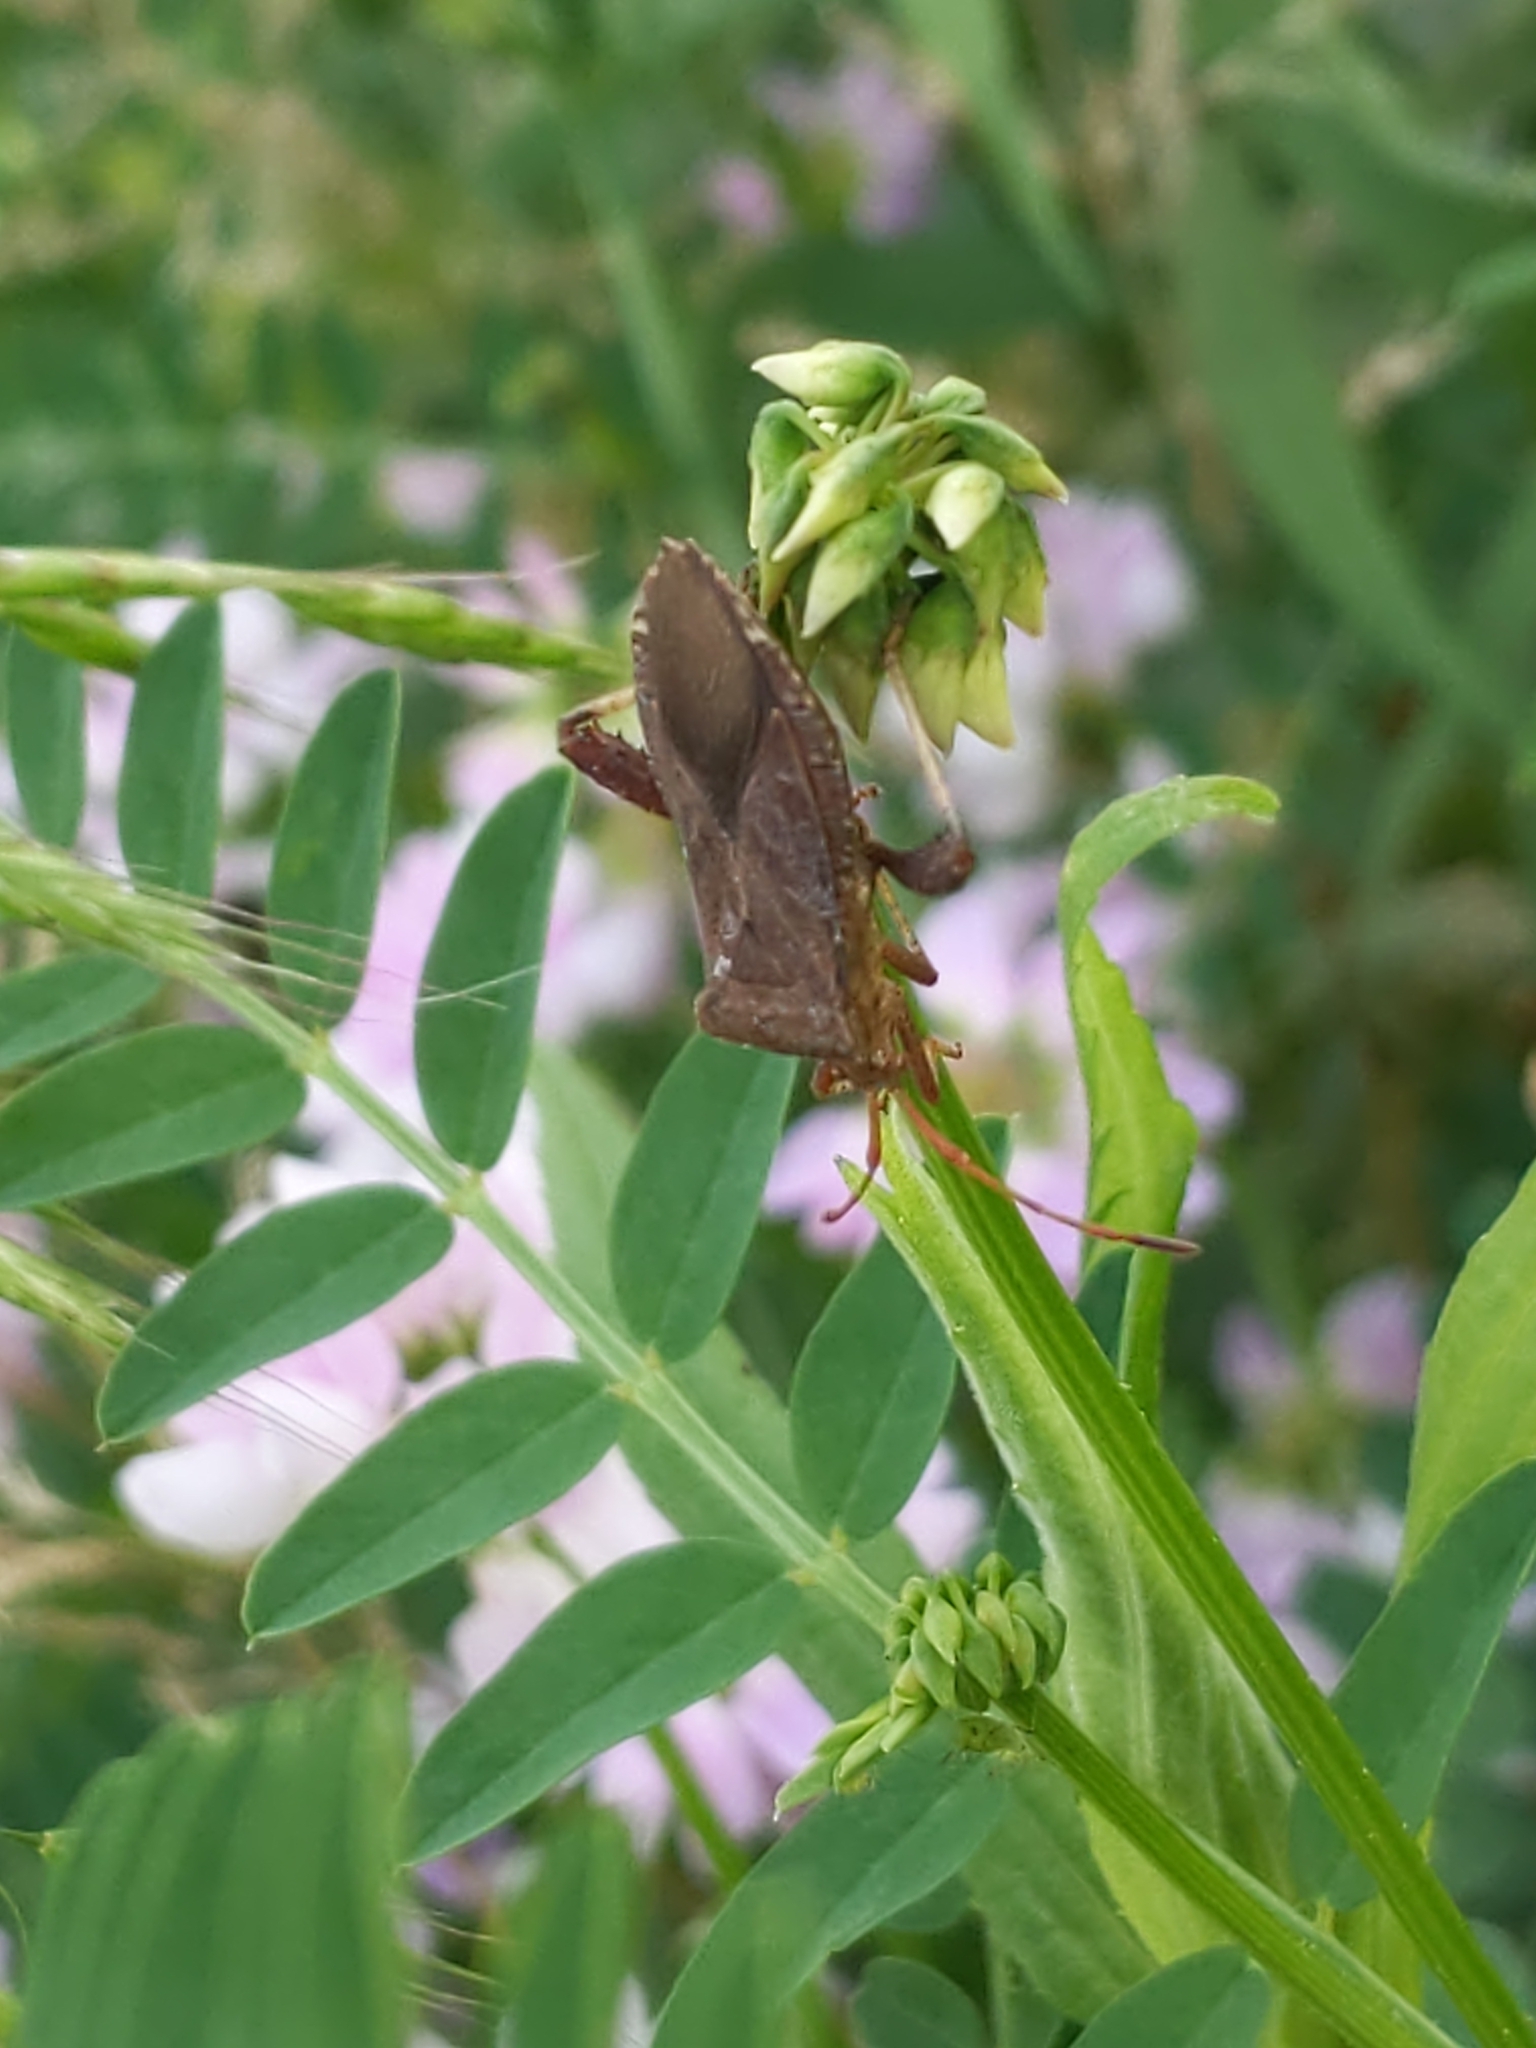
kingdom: Animalia
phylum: Arthropoda
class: Insecta
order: Hemiptera
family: Coreidae
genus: Euthochtha
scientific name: Euthochtha galeator
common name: Helmeted squash bug
